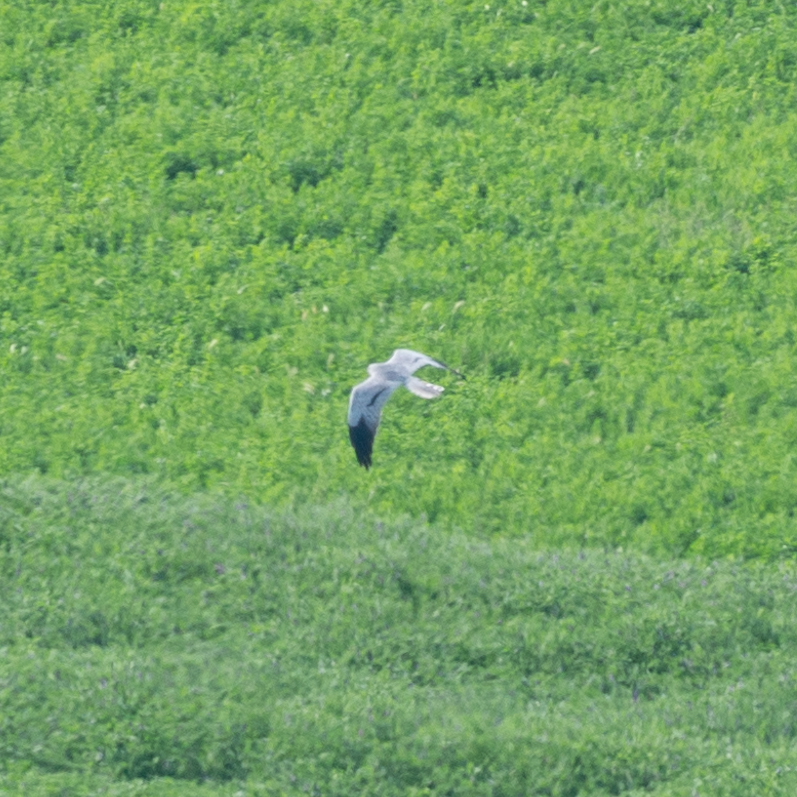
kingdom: Animalia
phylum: Chordata
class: Aves
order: Accipitriformes
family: Accipitridae
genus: Circus
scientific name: Circus pygargus
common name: Montagu's harrier
